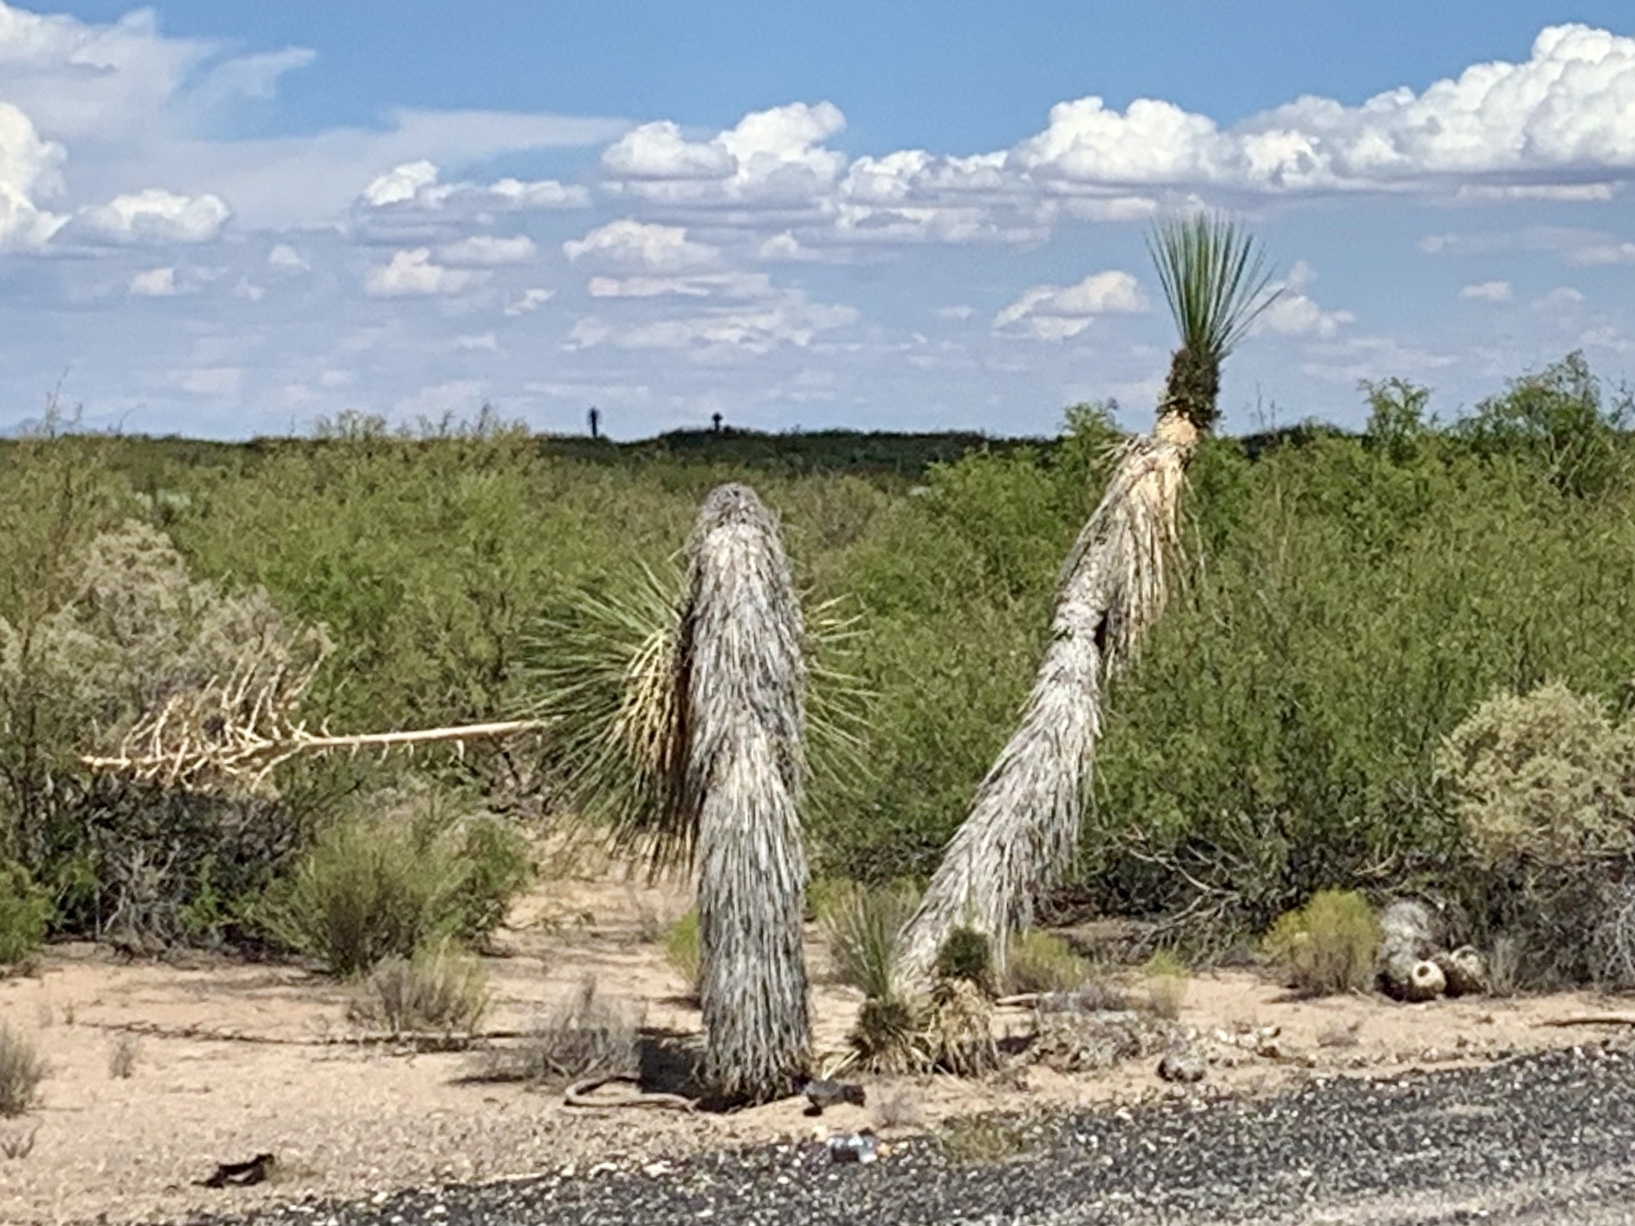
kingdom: Plantae
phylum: Tracheophyta
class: Liliopsida
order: Asparagales
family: Asparagaceae
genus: Yucca
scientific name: Yucca elata
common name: Palmella
